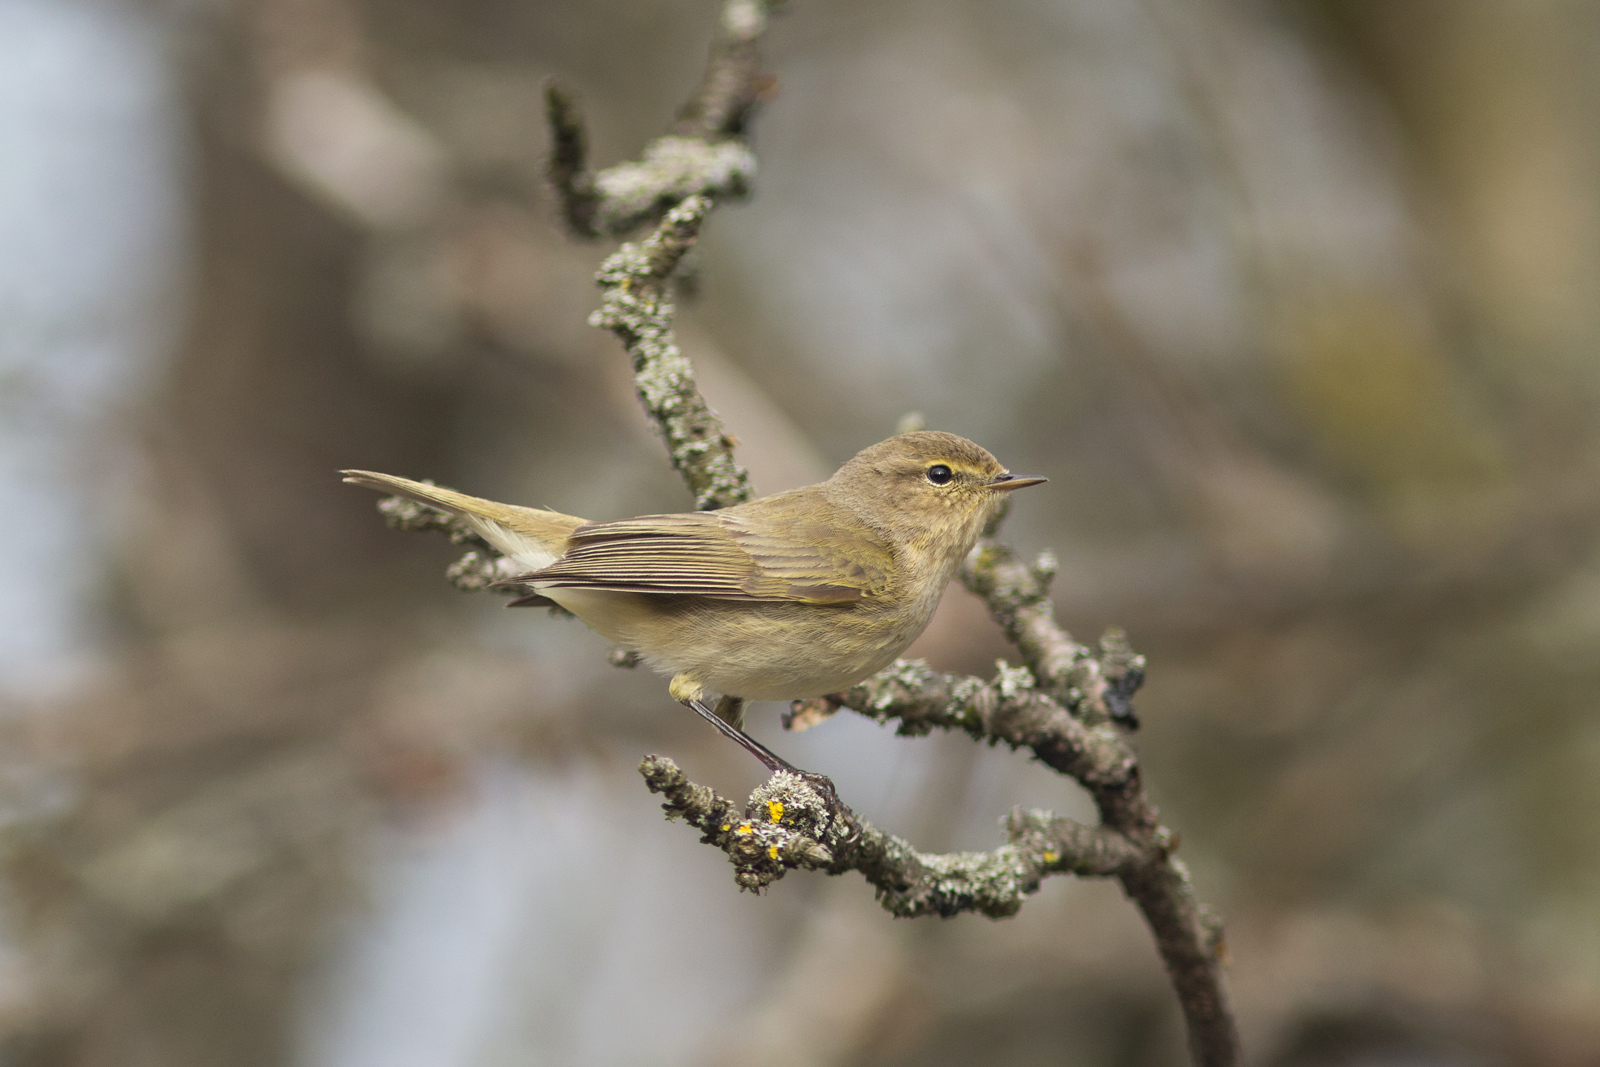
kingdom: Animalia
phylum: Chordata
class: Aves
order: Passeriformes
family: Phylloscopidae
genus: Phylloscopus
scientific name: Phylloscopus collybita
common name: Common chiffchaff
